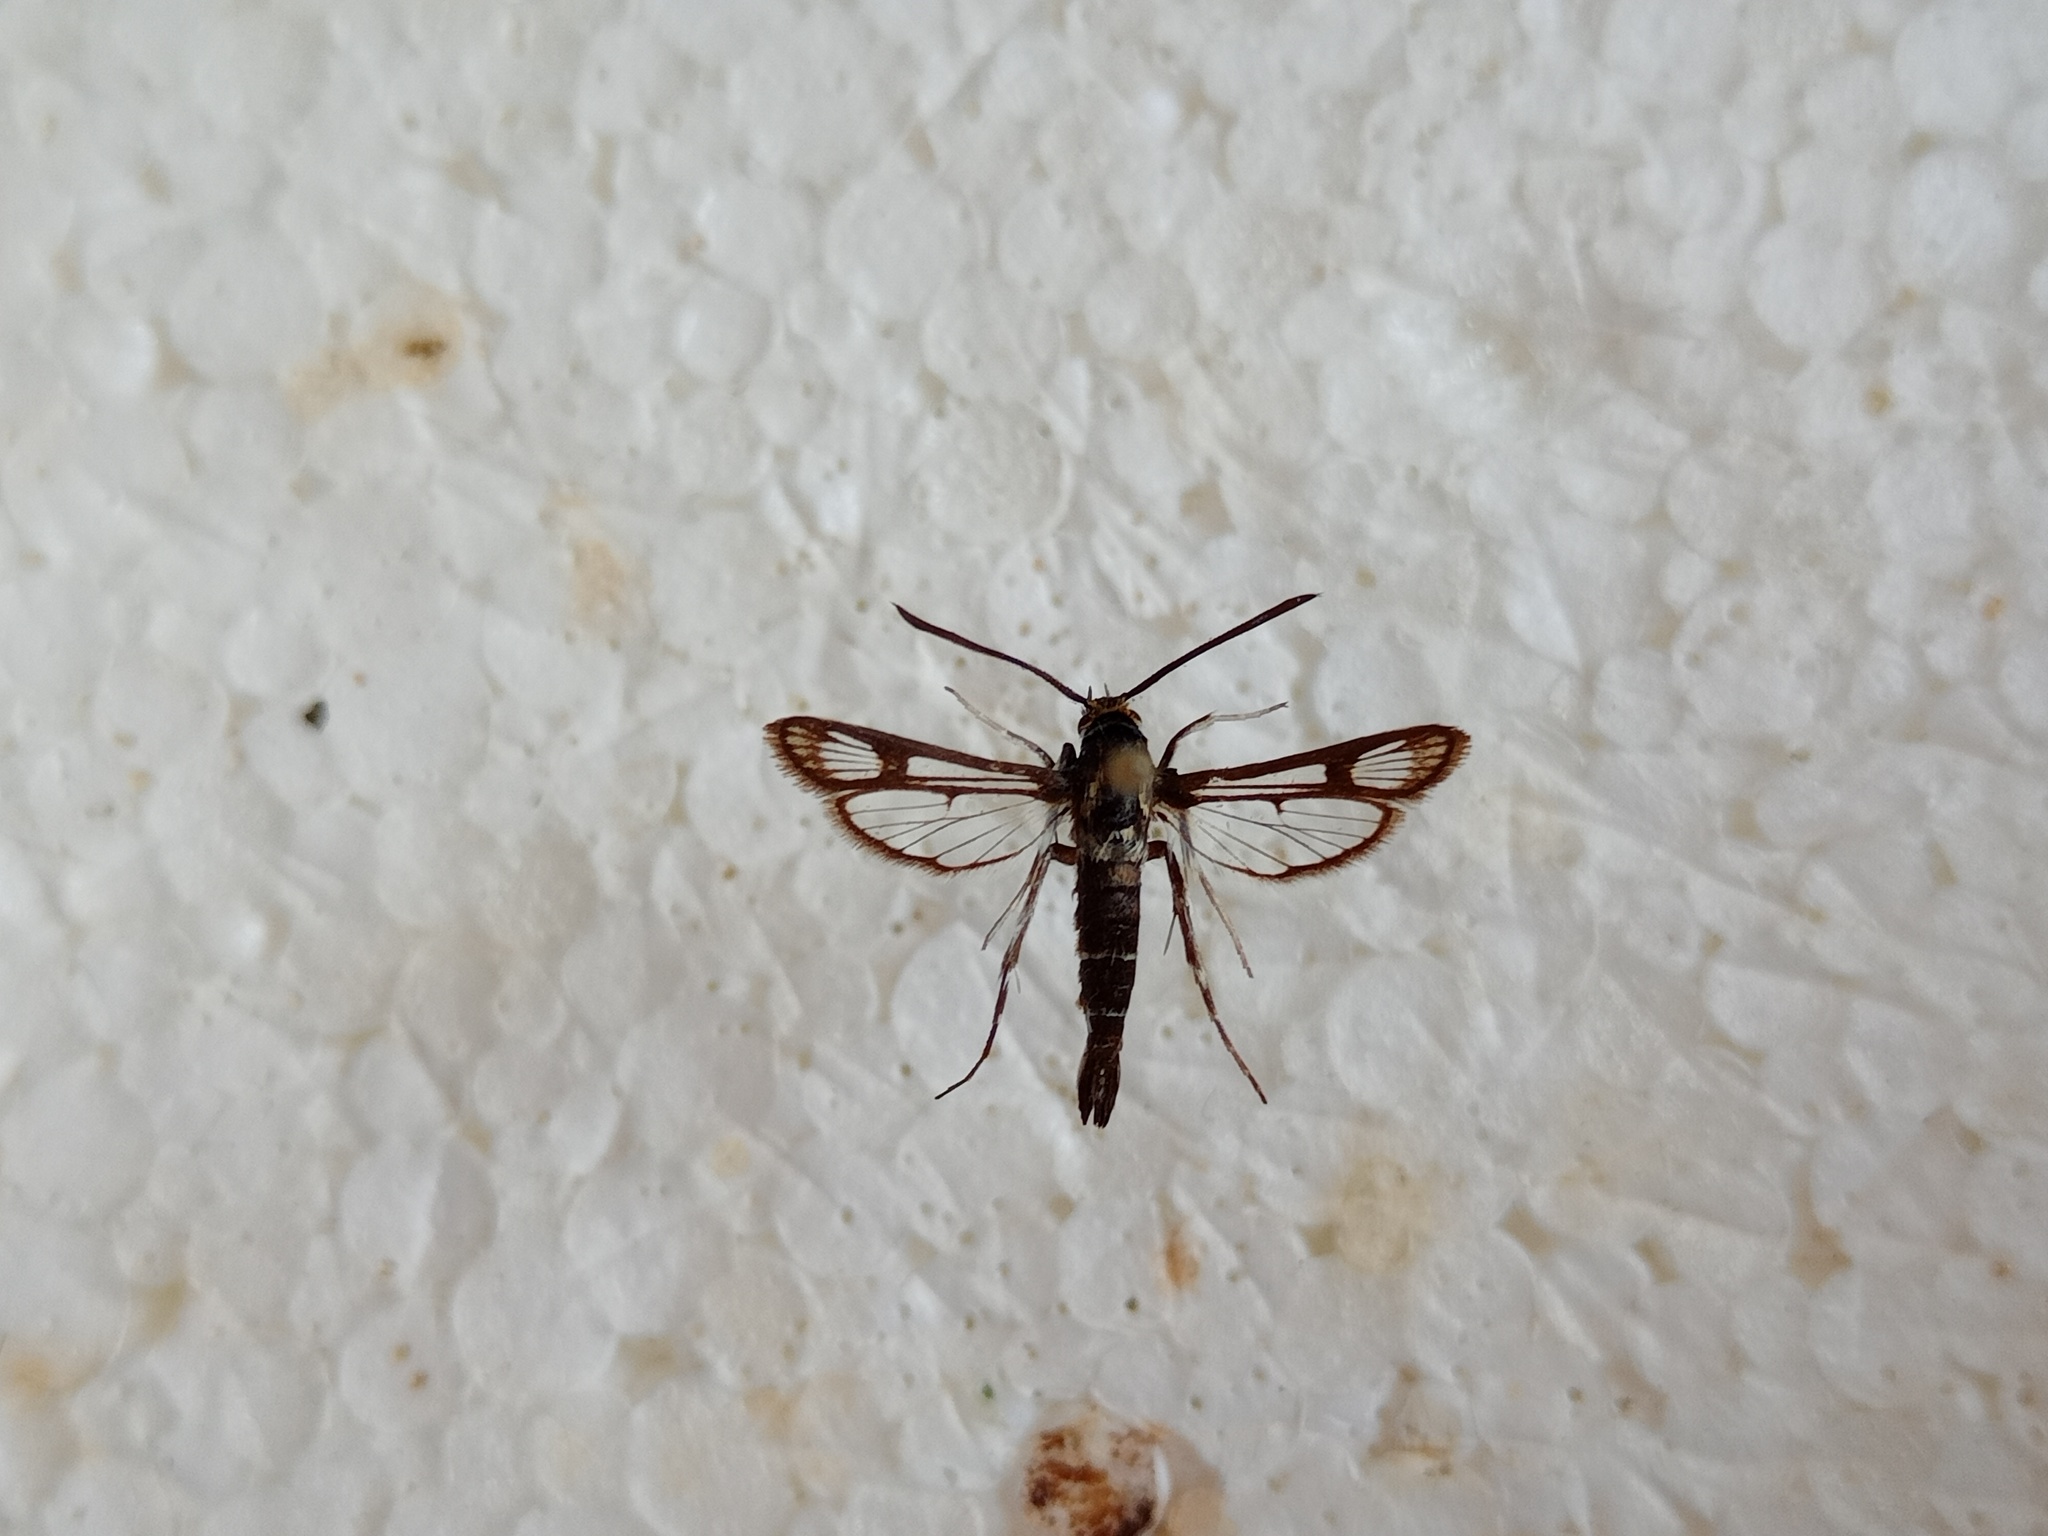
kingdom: Animalia
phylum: Arthropoda
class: Insecta
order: Lepidoptera
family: Sesiidae
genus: Pyropteron
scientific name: Pyropteron leucomelaena
